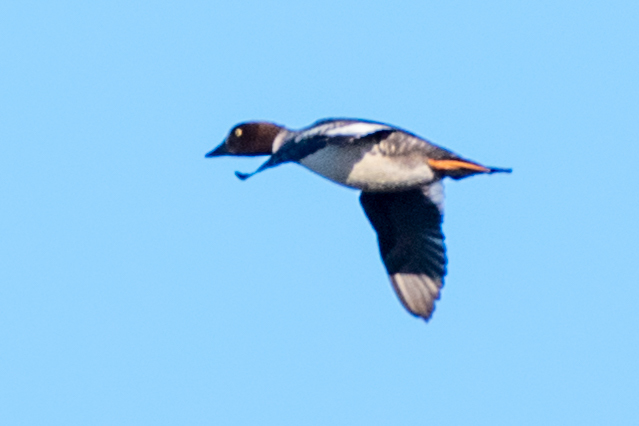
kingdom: Animalia
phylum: Chordata
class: Aves
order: Anseriformes
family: Anatidae
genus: Bucephala
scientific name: Bucephala clangula
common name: Common goldeneye
